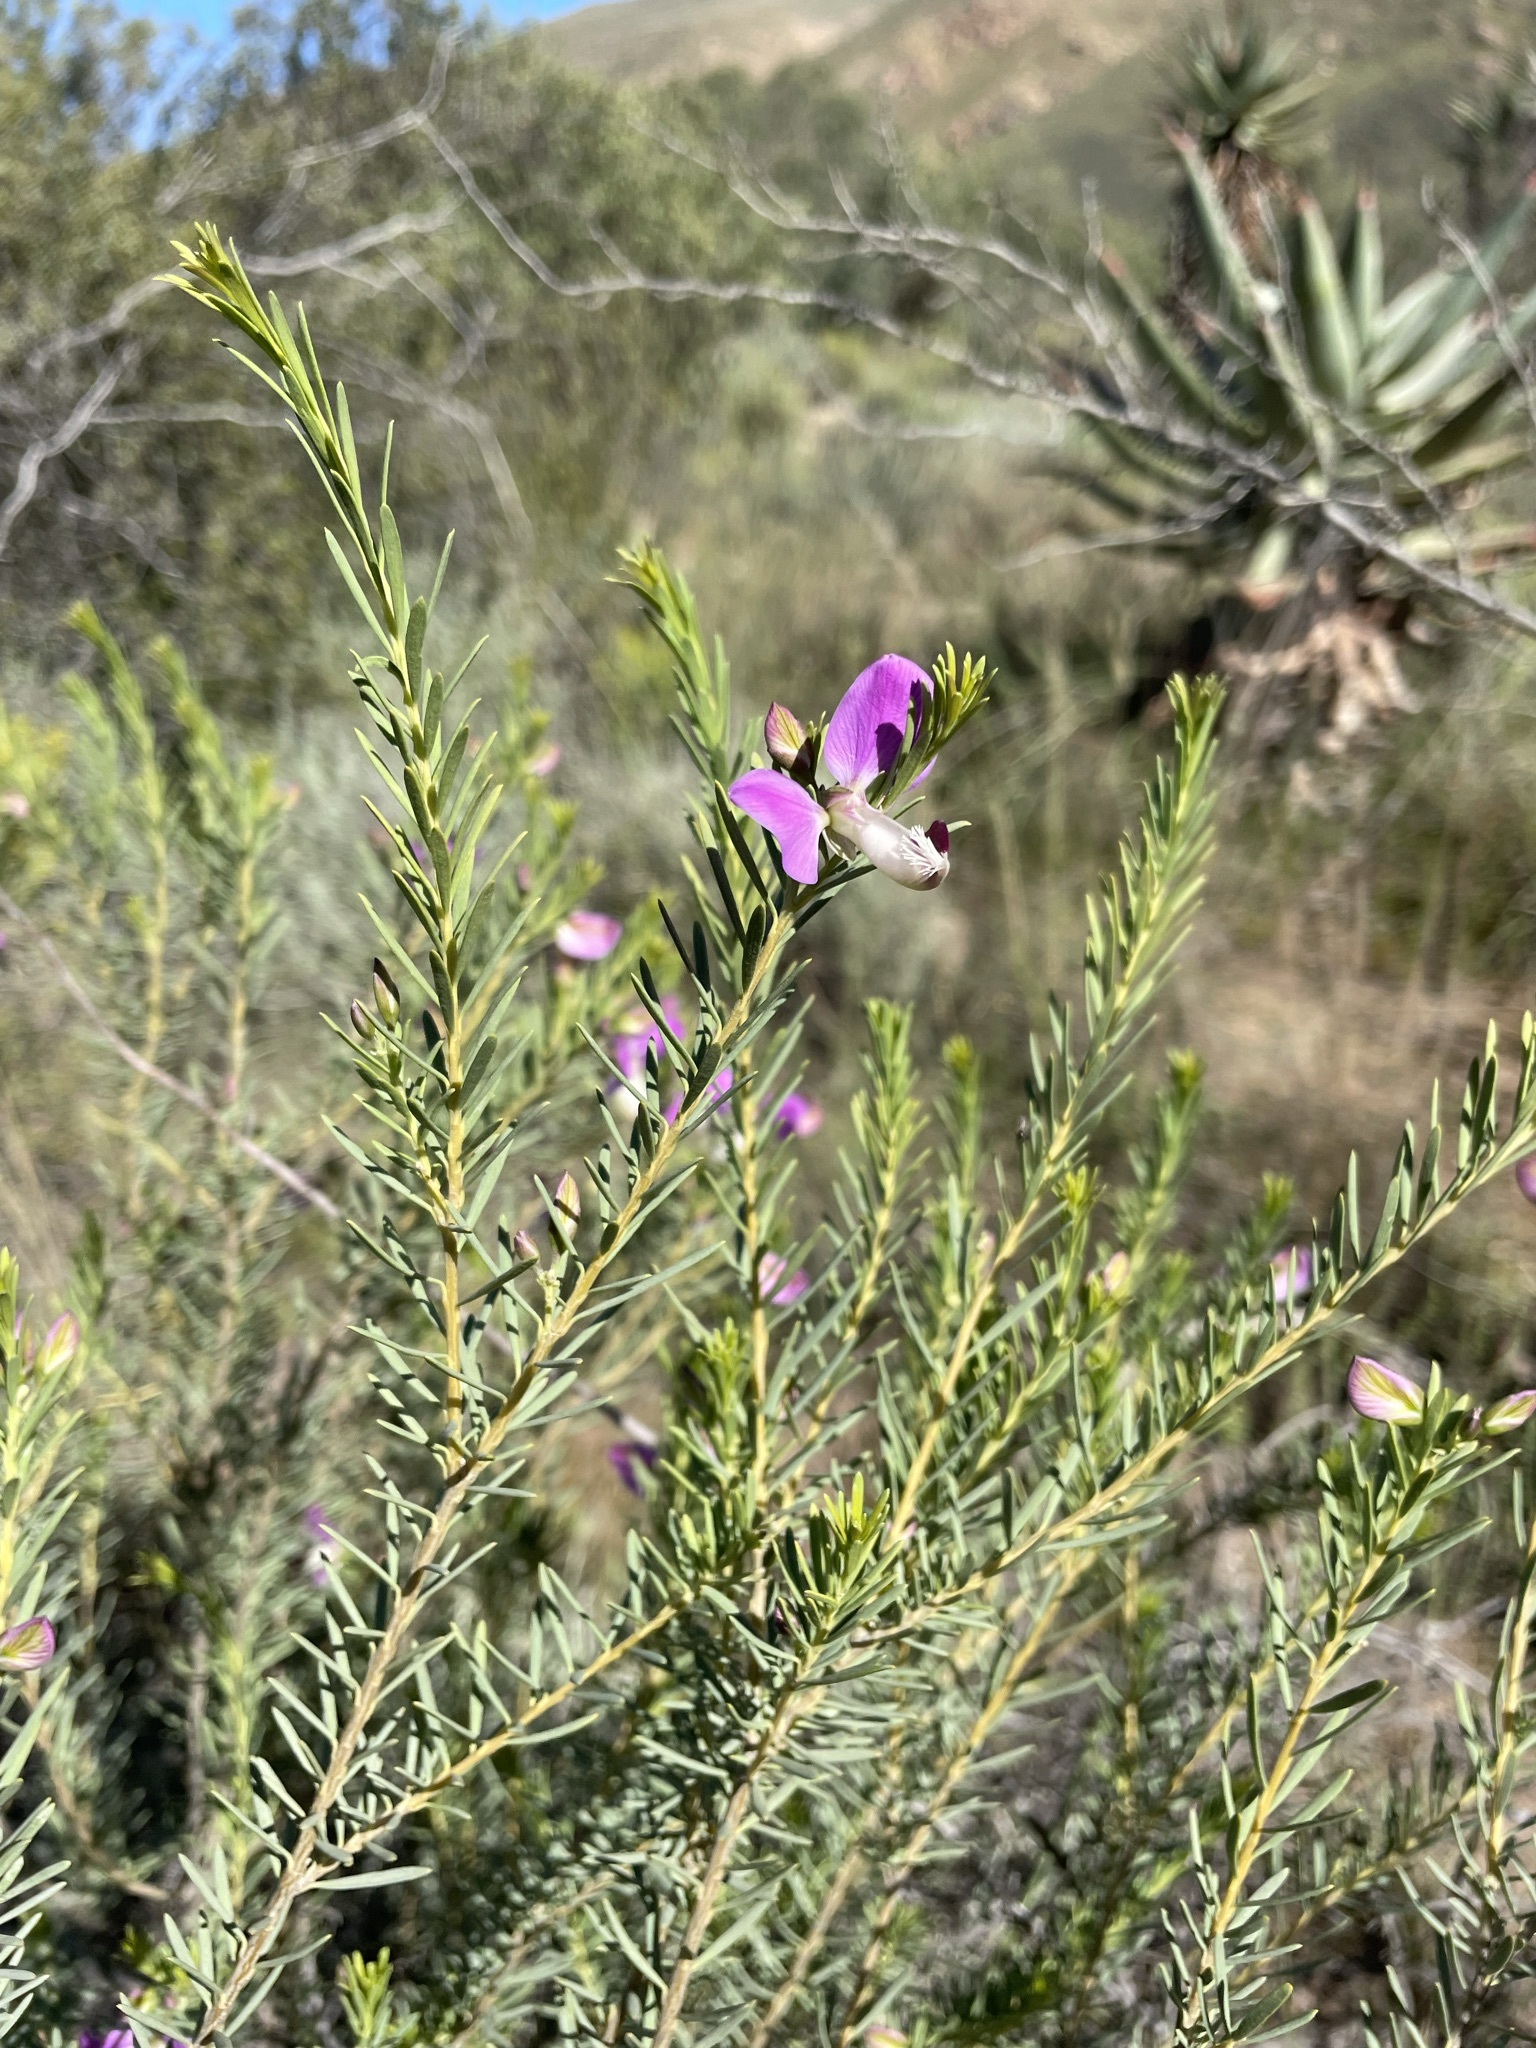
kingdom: Plantae
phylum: Tracheophyta
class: Magnoliopsida
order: Fabales
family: Polygalaceae
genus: Polygala
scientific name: Polygala myrtifolia
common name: Myrtle-leaf milkwort
